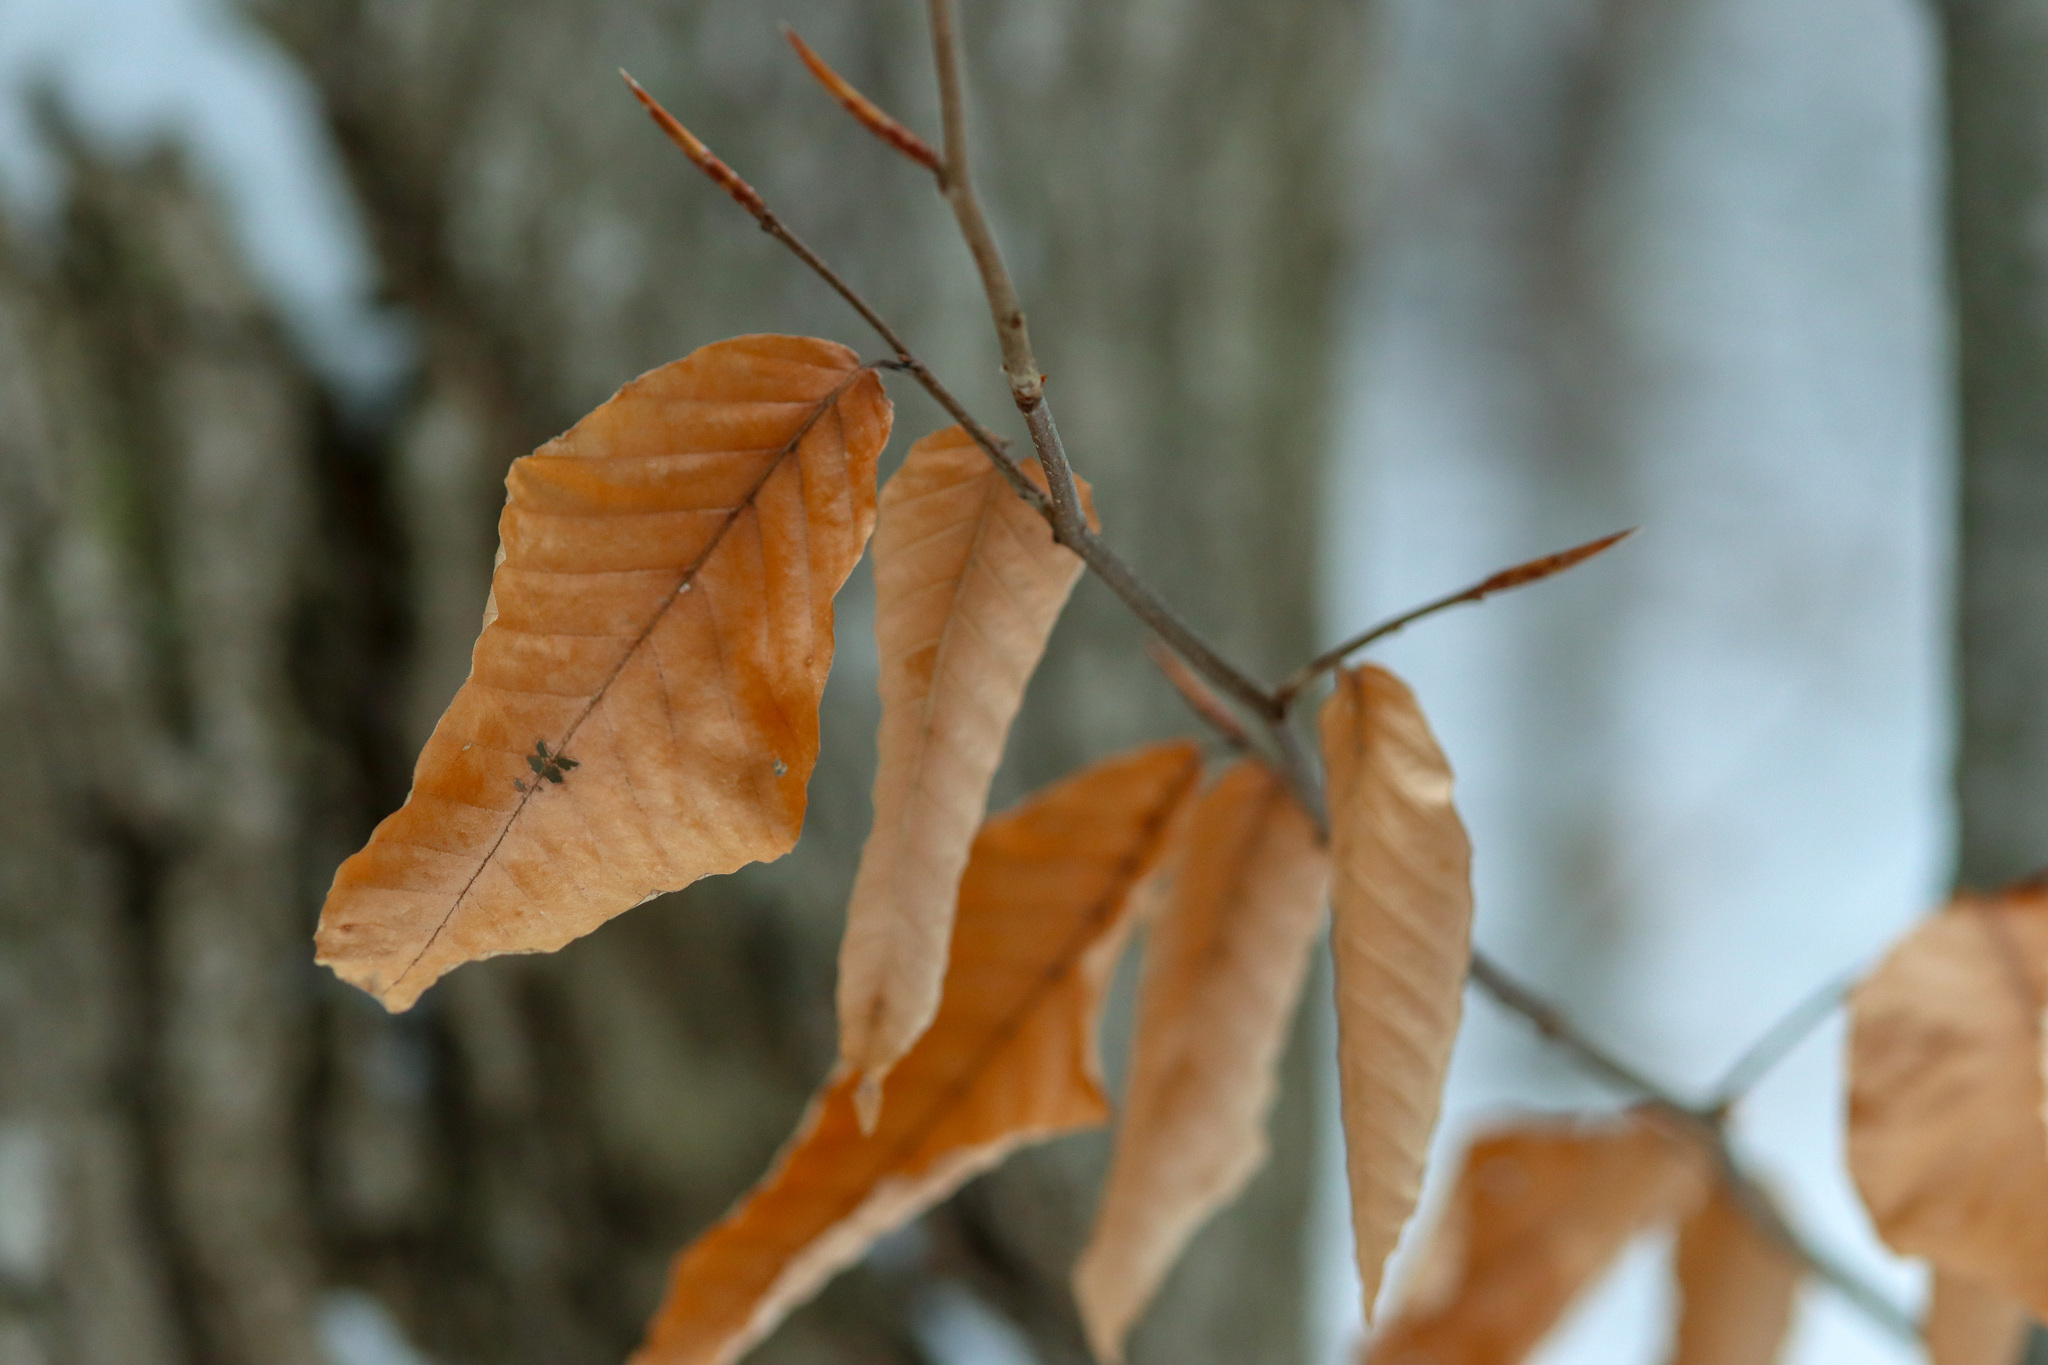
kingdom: Plantae
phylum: Tracheophyta
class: Magnoliopsida
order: Fagales
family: Fagaceae
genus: Fagus
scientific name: Fagus grandifolia
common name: American beech
